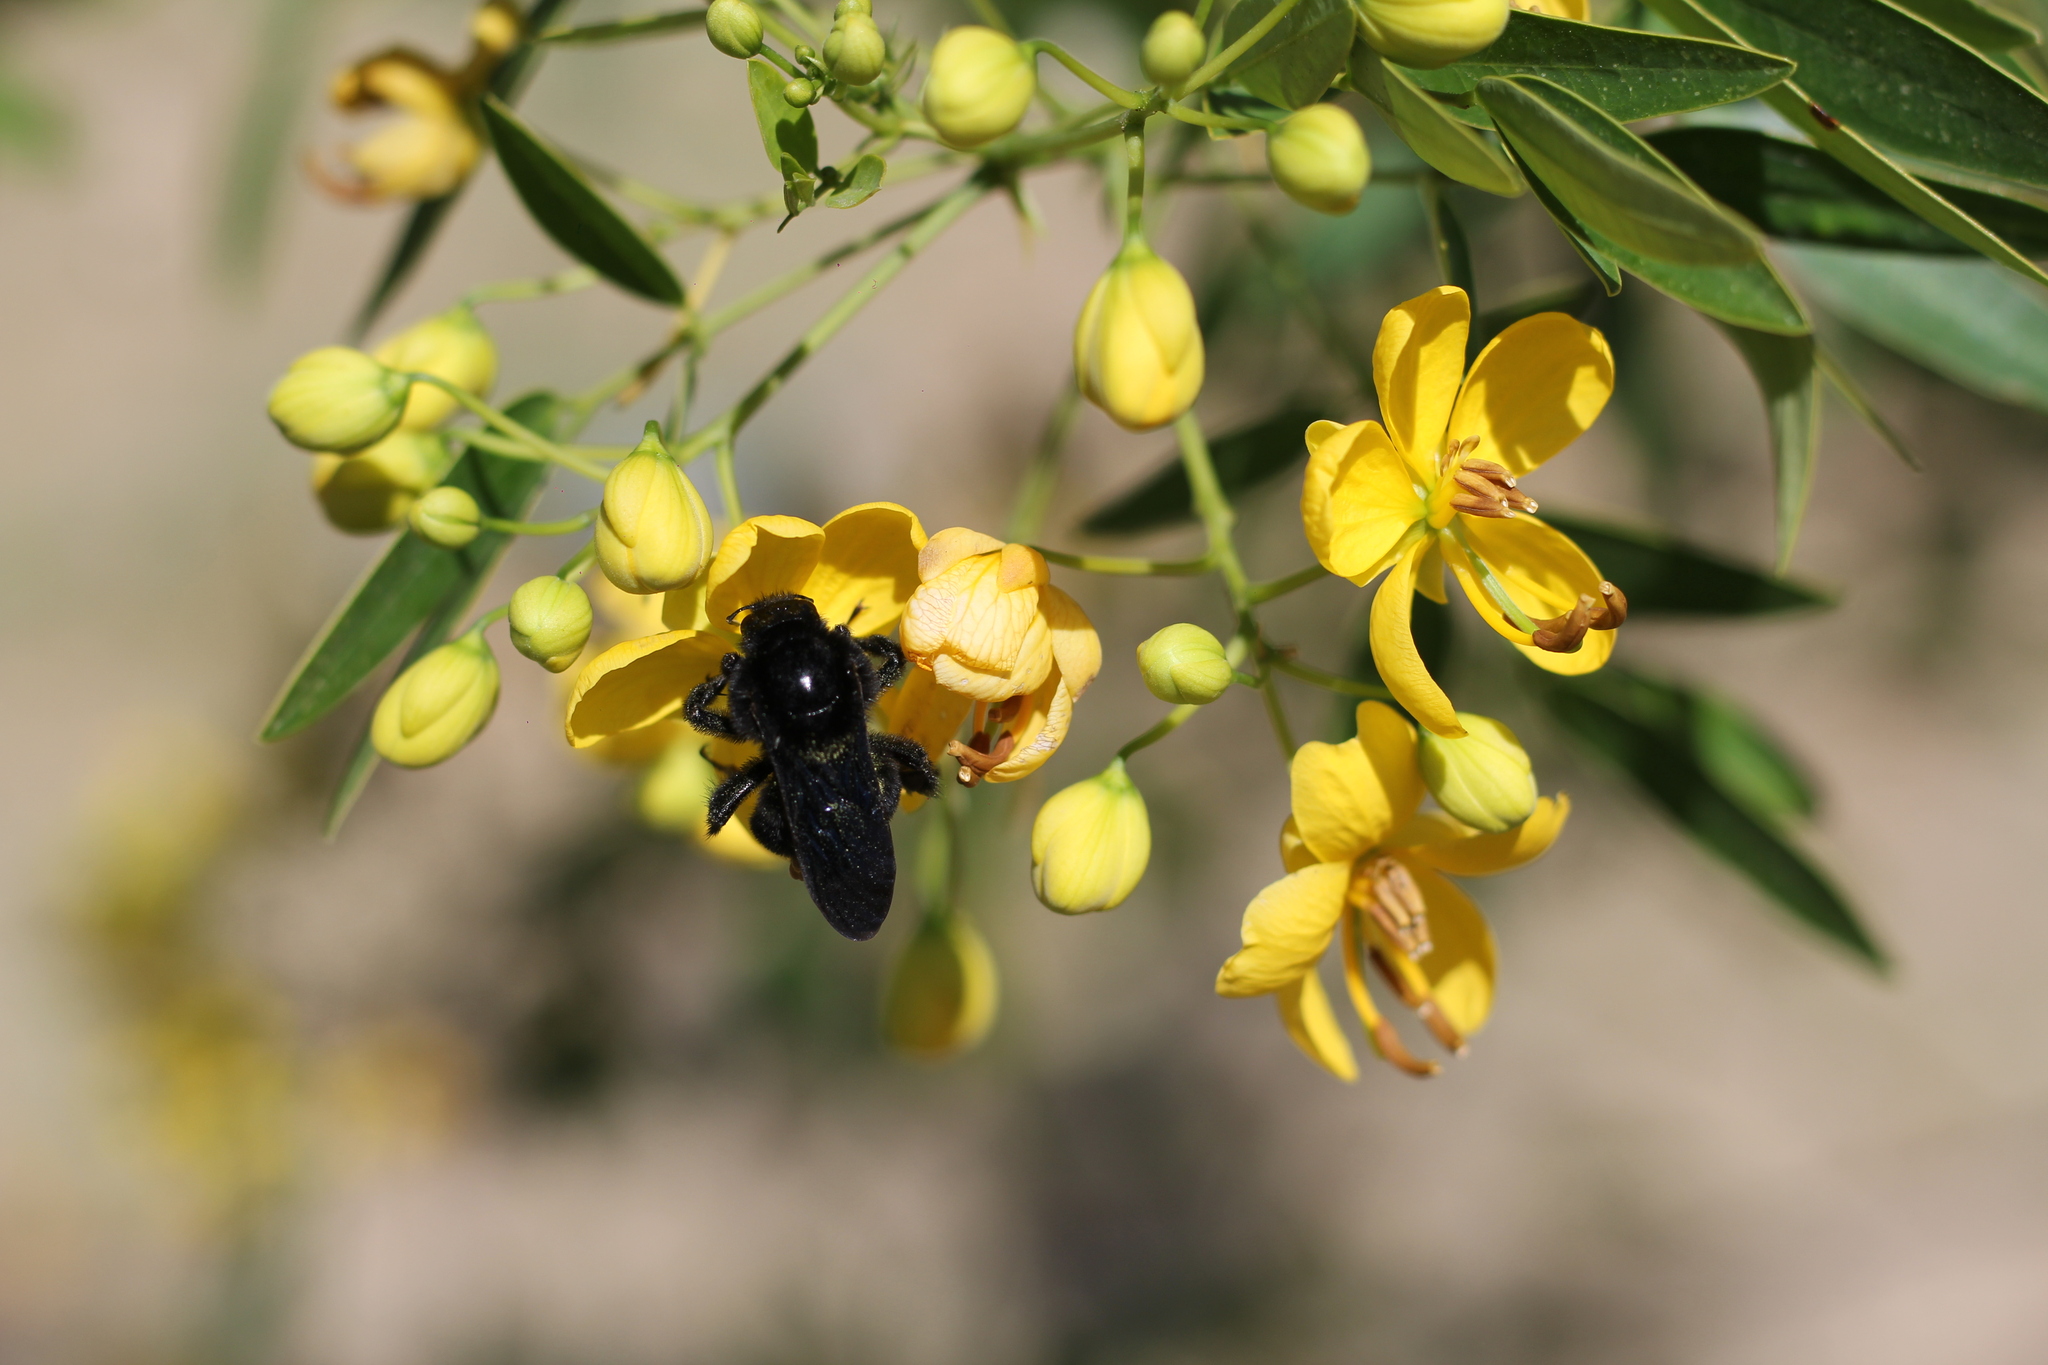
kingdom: Animalia
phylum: Arthropoda
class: Insecta
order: Hymenoptera
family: Apidae
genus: Bombus
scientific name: Bombus pauloensis
